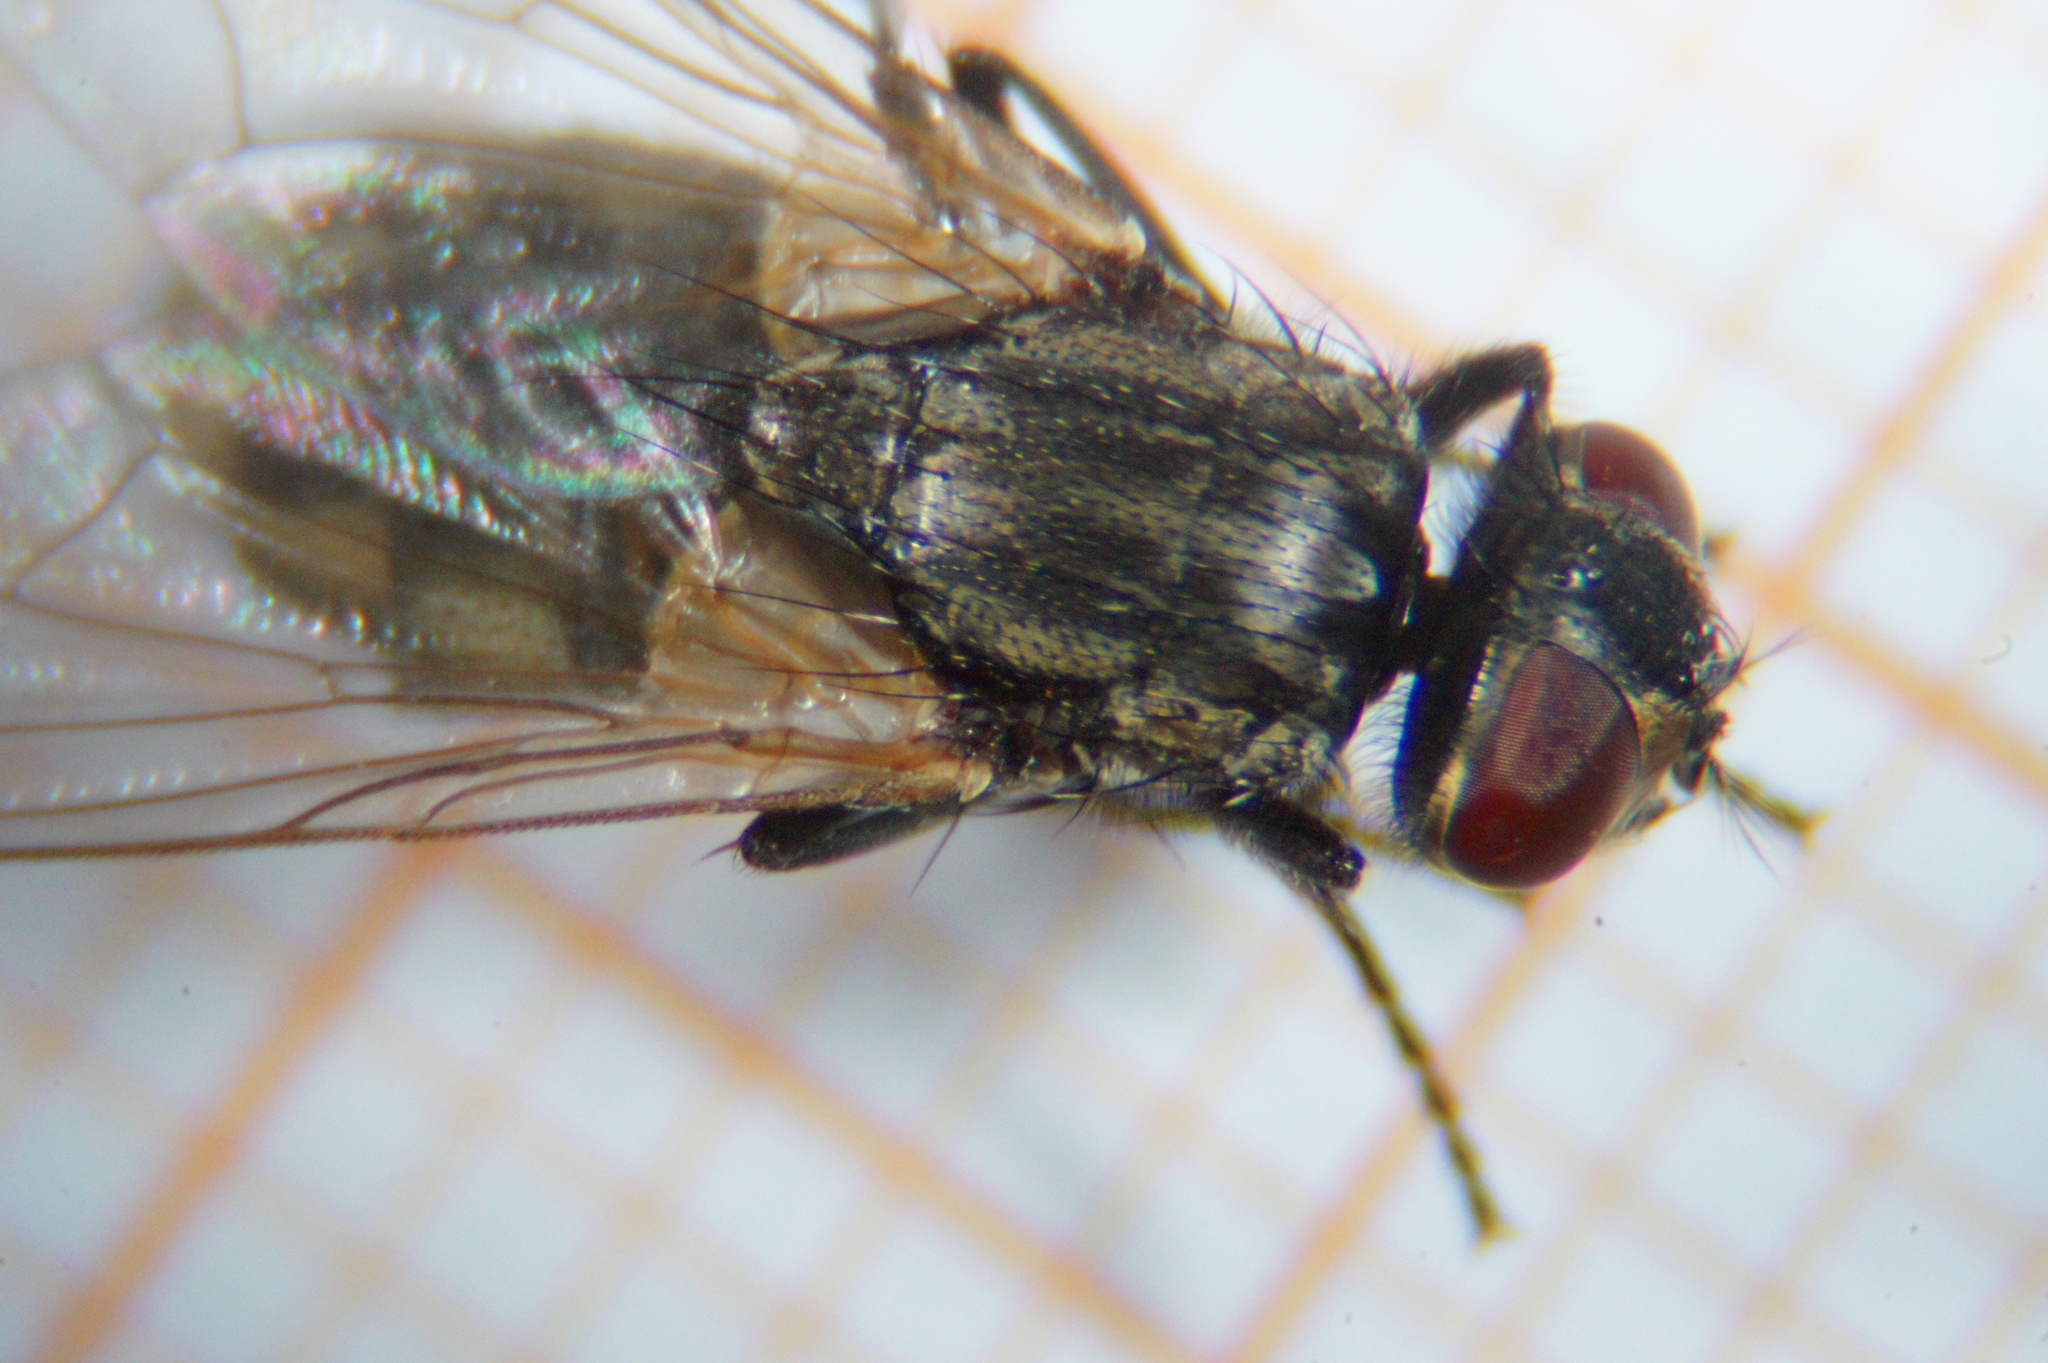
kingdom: Animalia
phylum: Arthropoda
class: Insecta
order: Diptera
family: Muscidae
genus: Musca
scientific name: Musca domestica
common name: House fly
